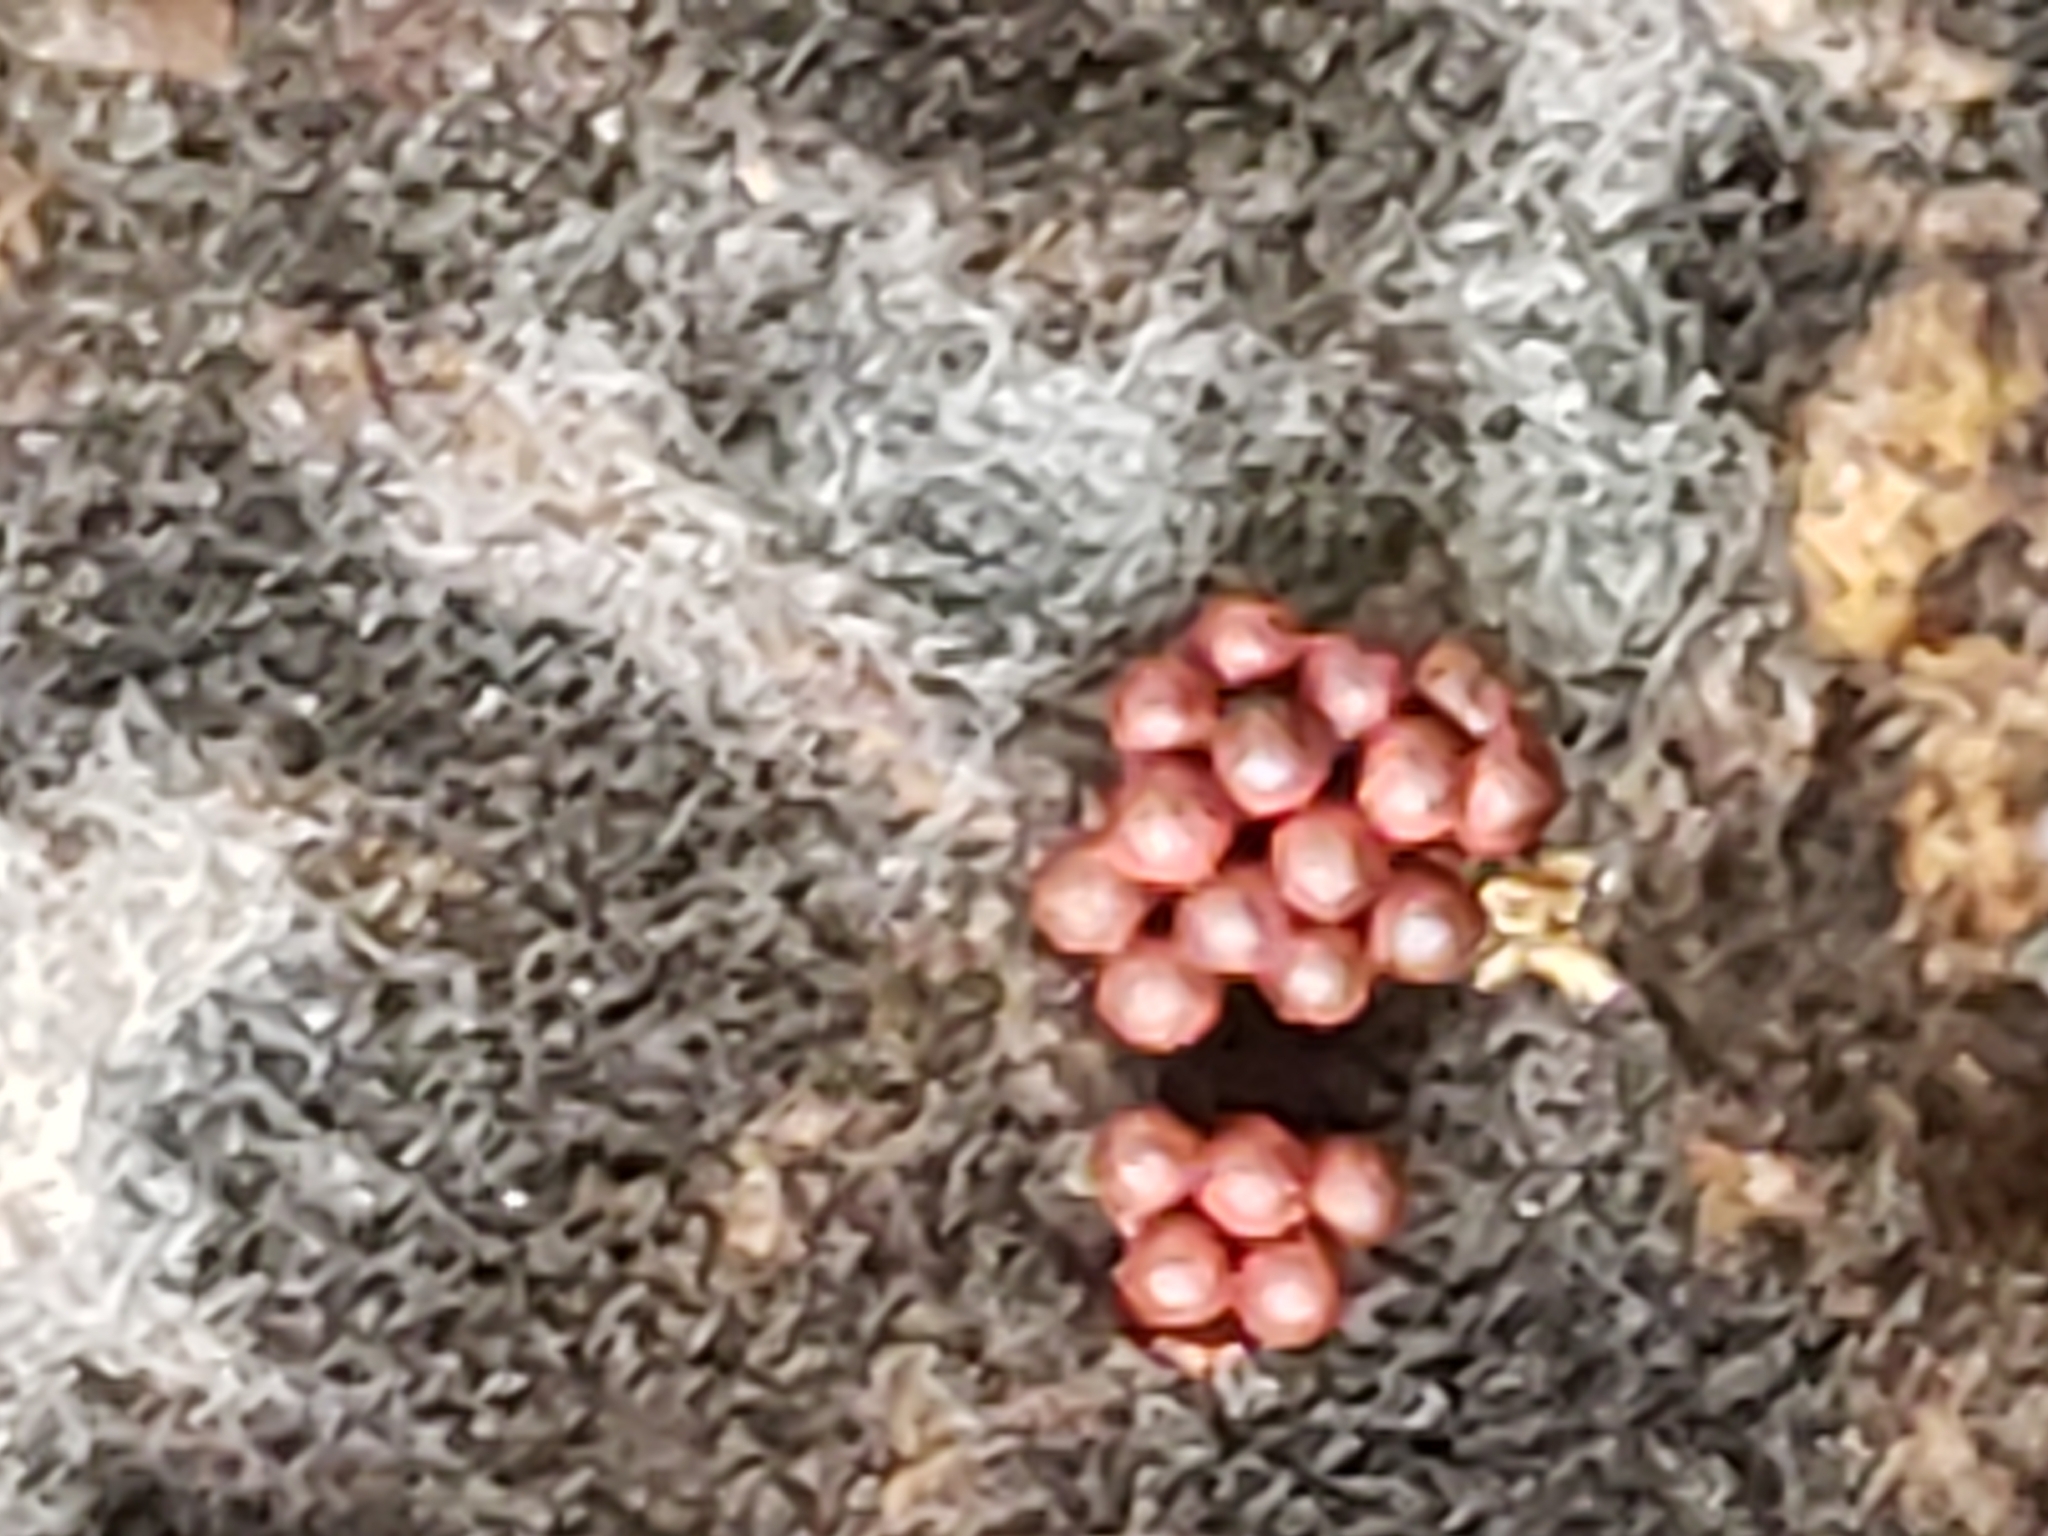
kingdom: Protozoa
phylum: Mycetozoa
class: Myxomycetes
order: Trichiales
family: Trichiaceae
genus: Metatrichia
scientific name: Metatrichia vesparia
